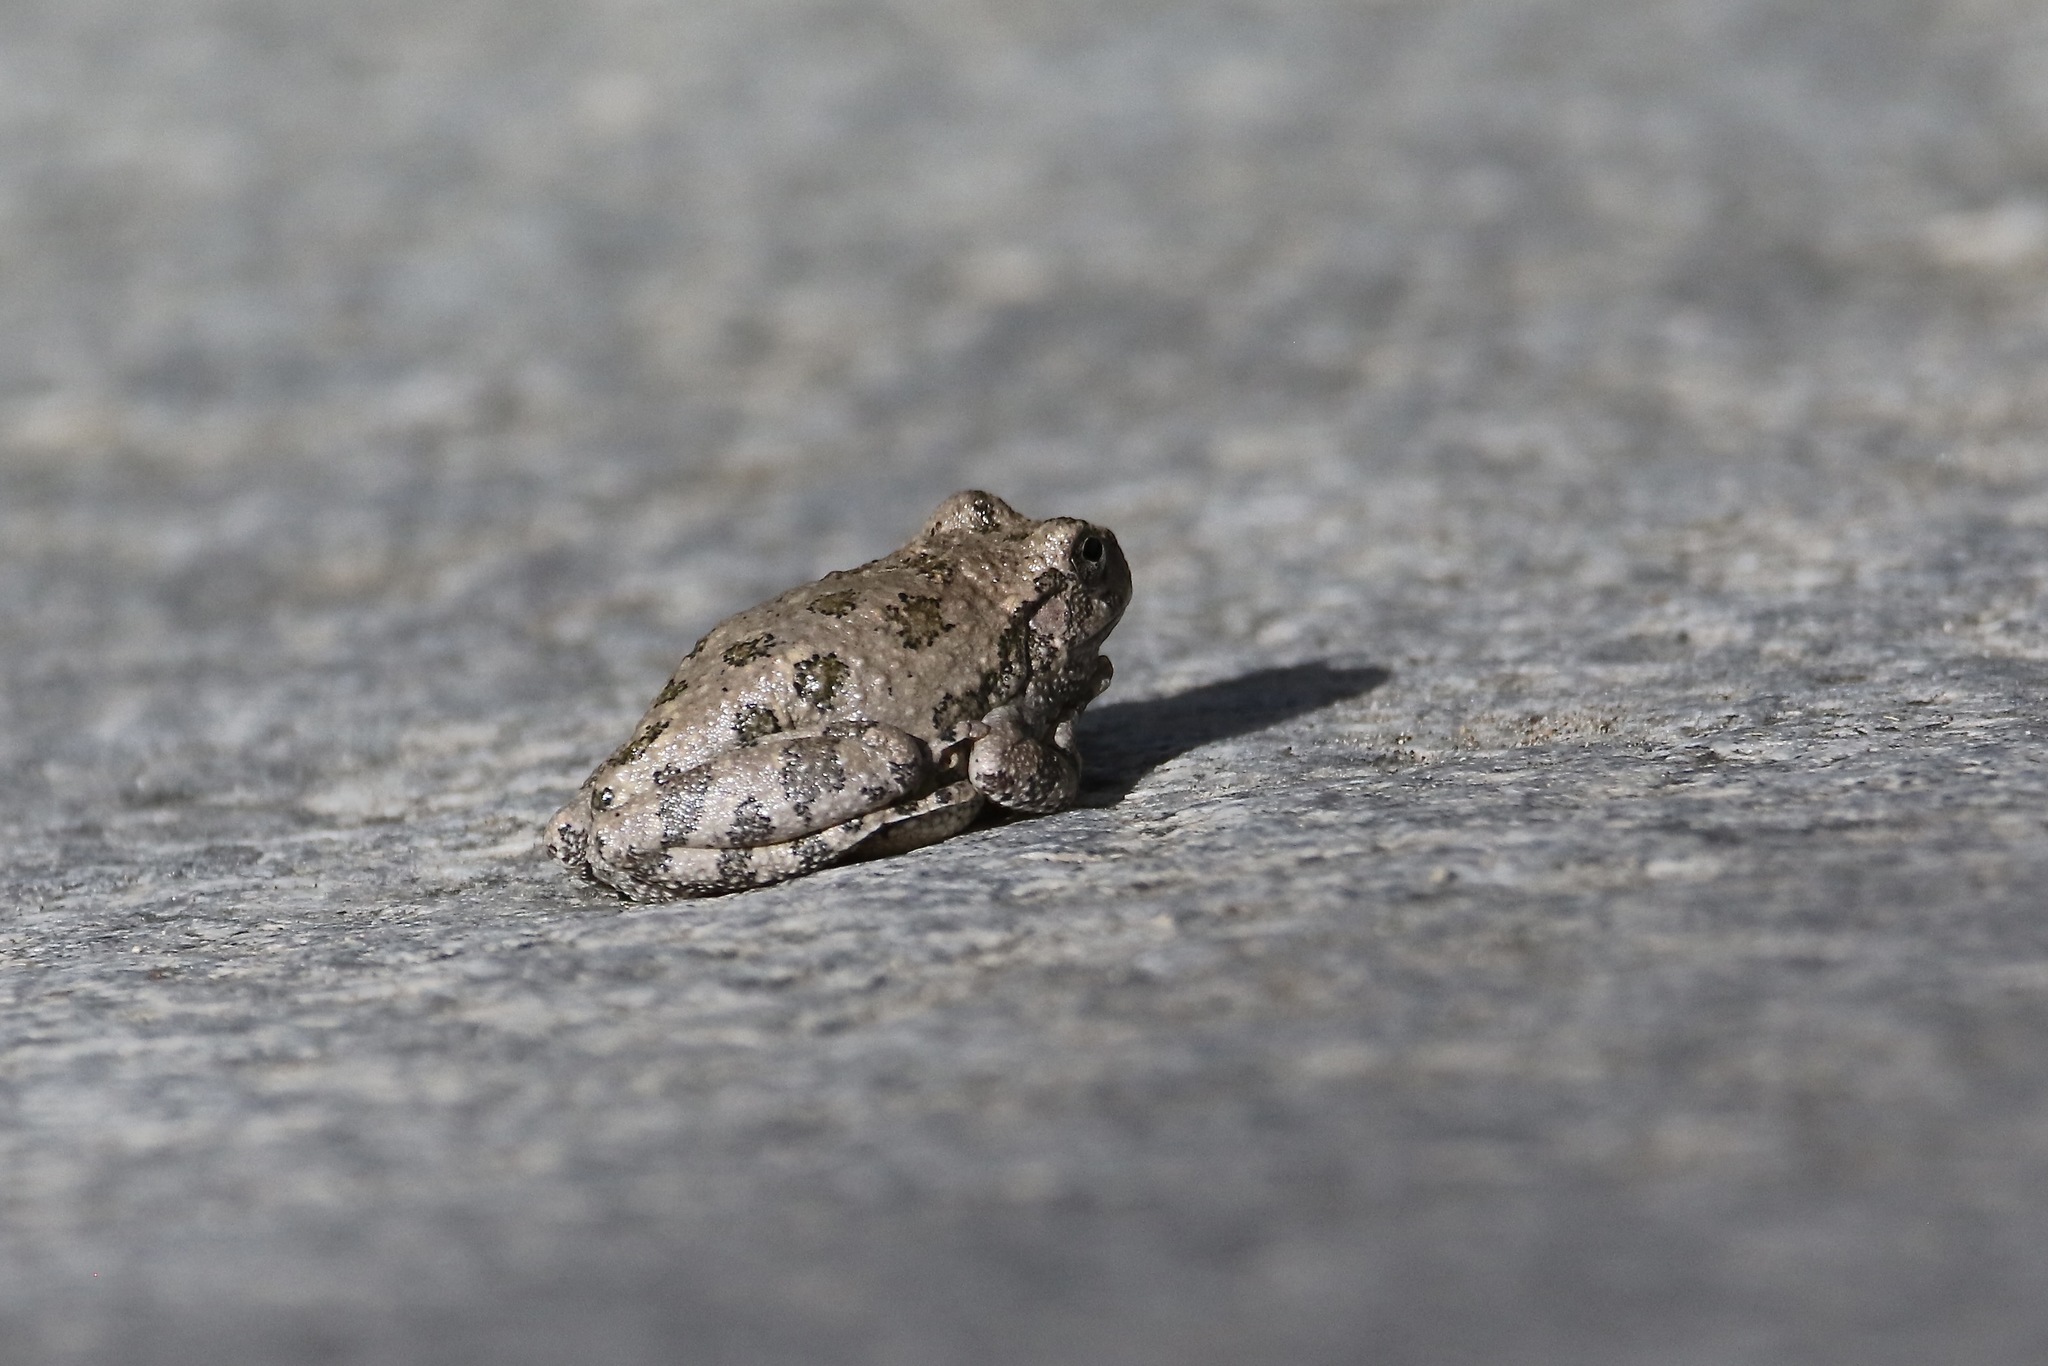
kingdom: Animalia
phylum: Chordata
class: Amphibia
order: Anura
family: Hylidae
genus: Dryophytes
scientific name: Dryophytes arenicolor
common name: Canyon treefrog
